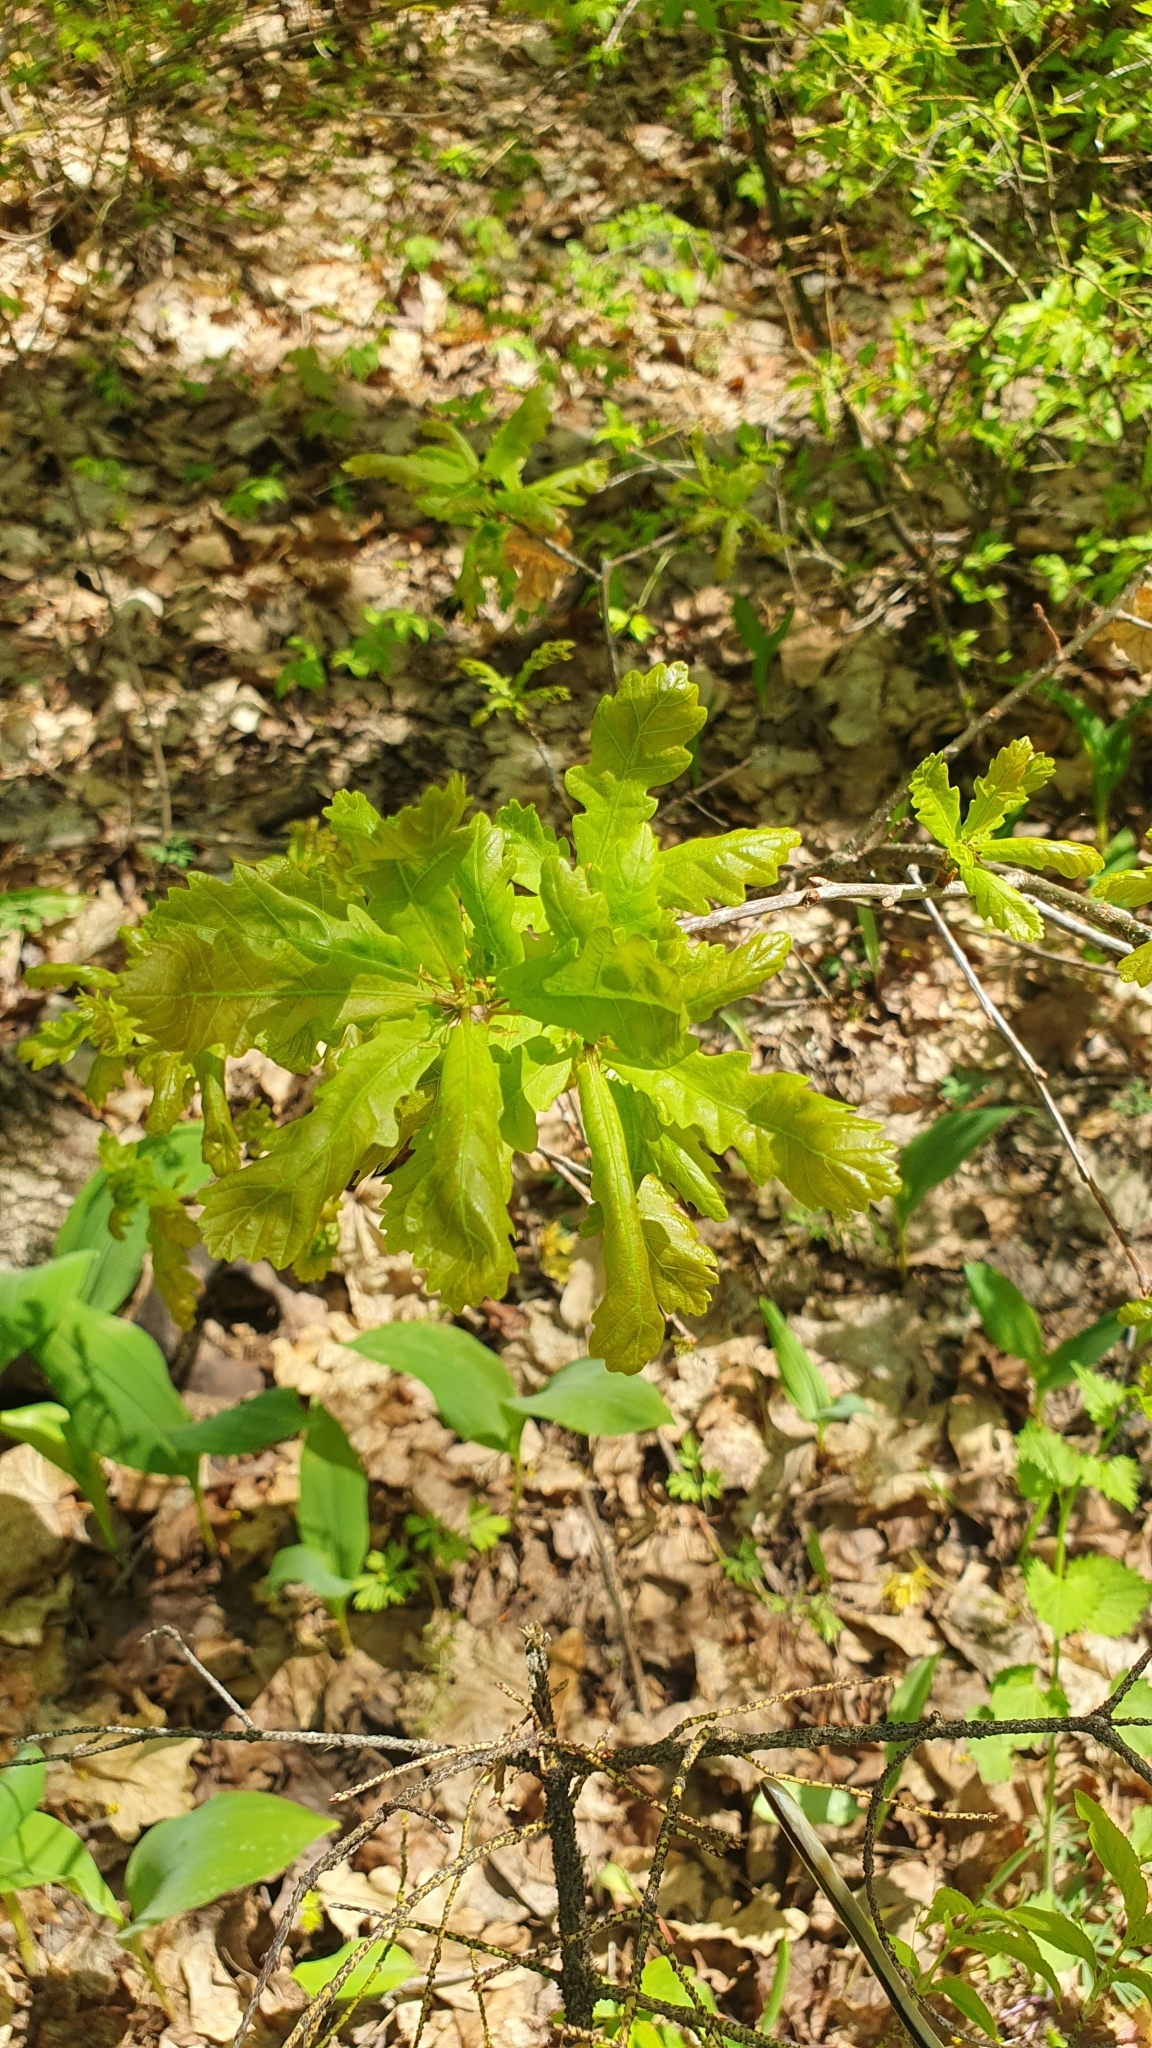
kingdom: Plantae
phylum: Tracheophyta
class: Magnoliopsida
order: Fagales
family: Fagaceae
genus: Quercus
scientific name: Quercus robur
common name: Pedunculate oak
